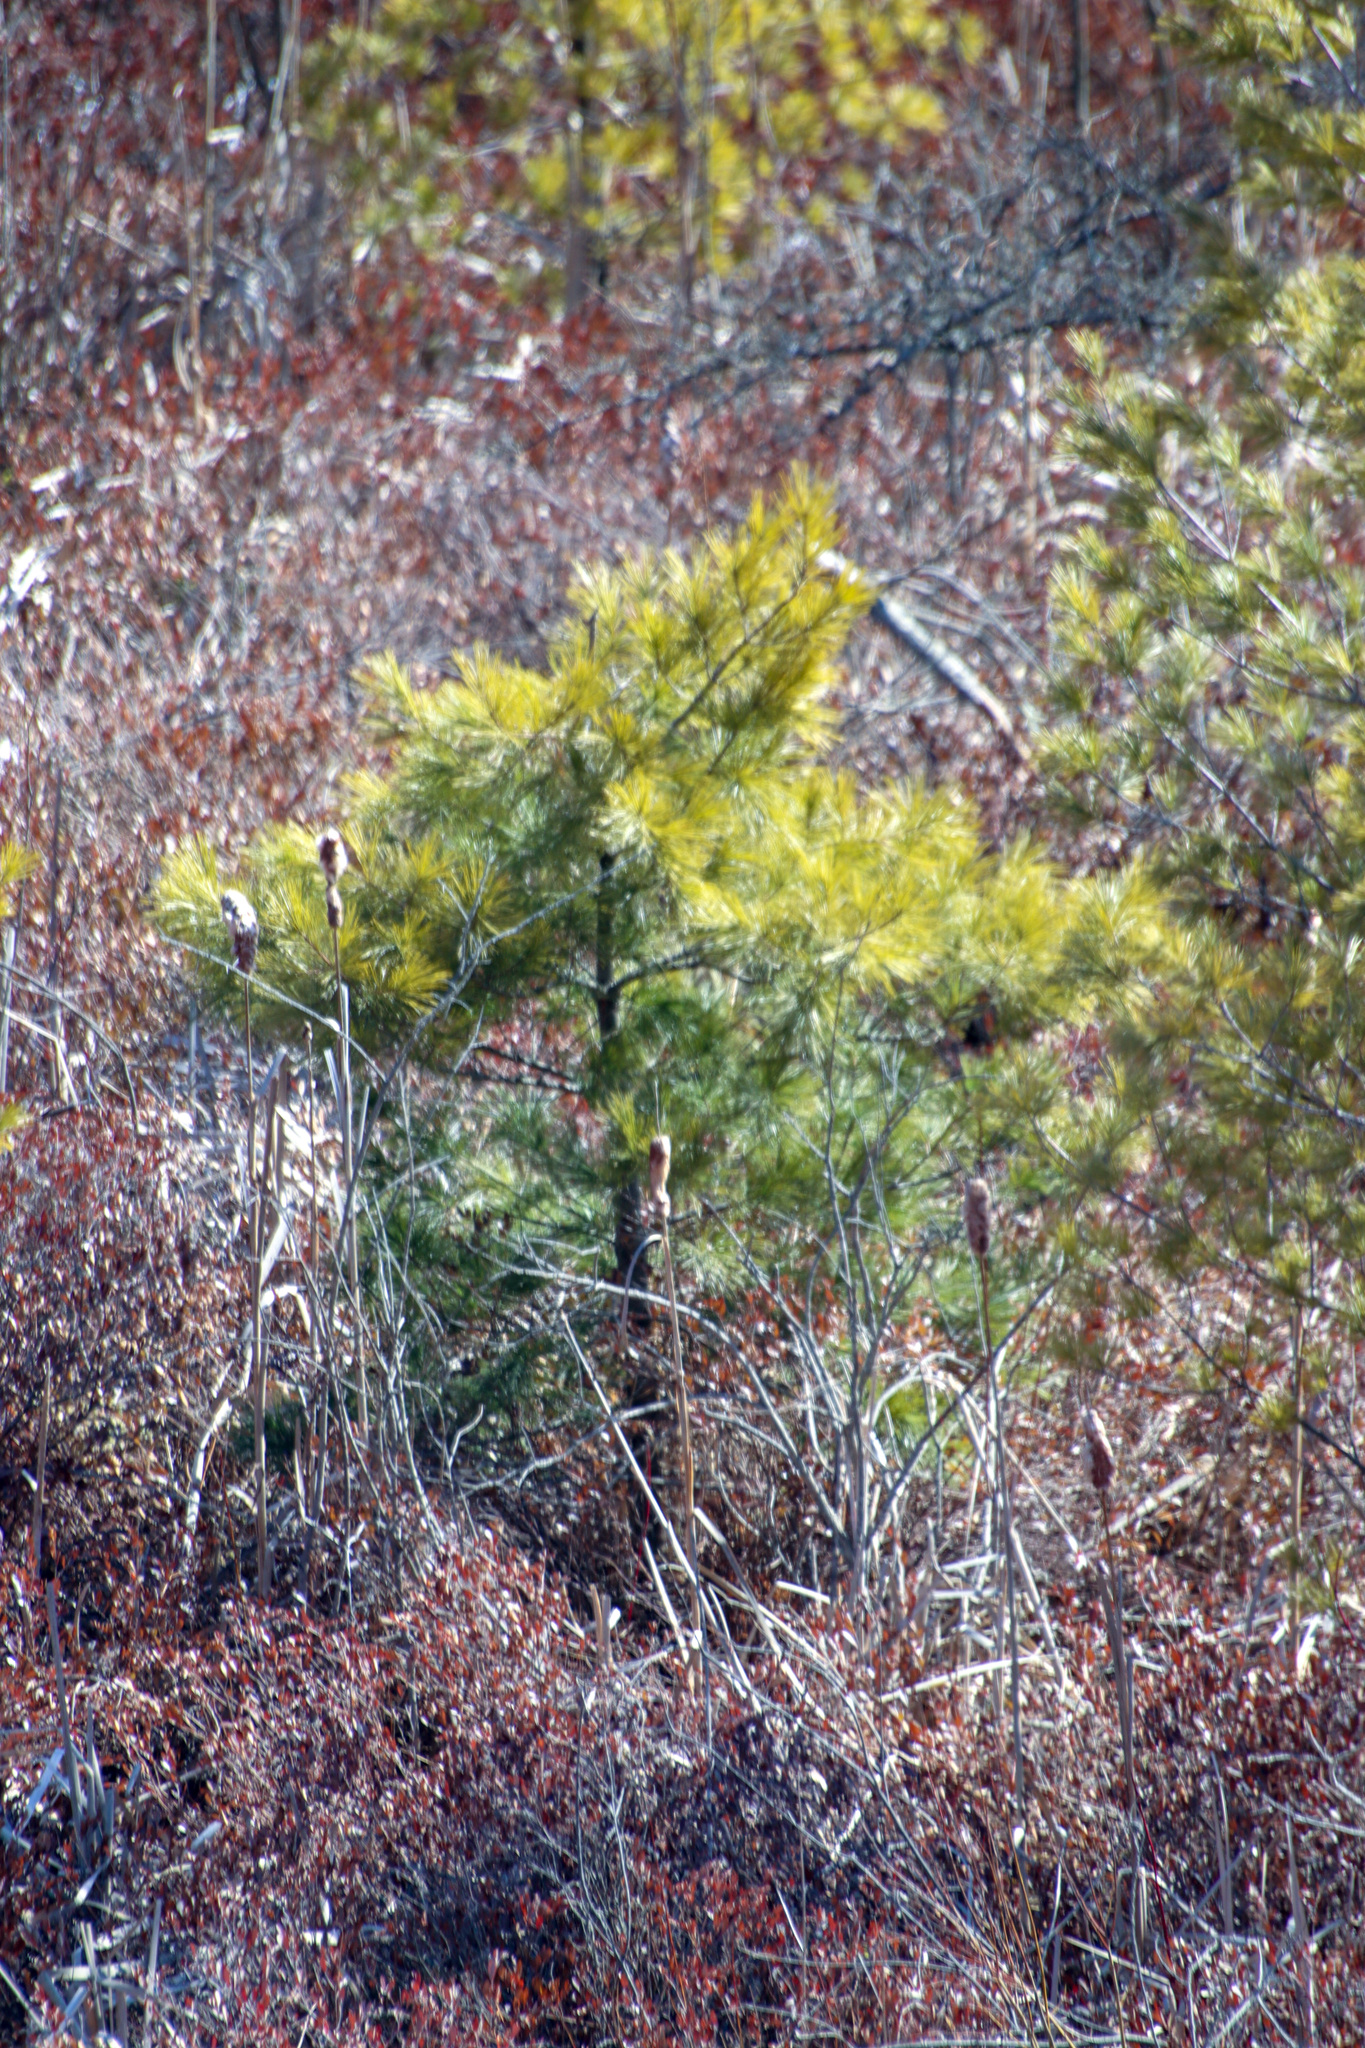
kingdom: Plantae
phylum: Tracheophyta
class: Pinopsida
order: Pinales
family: Pinaceae
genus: Pinus
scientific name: Pinus strobus
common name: Weymouth pine
